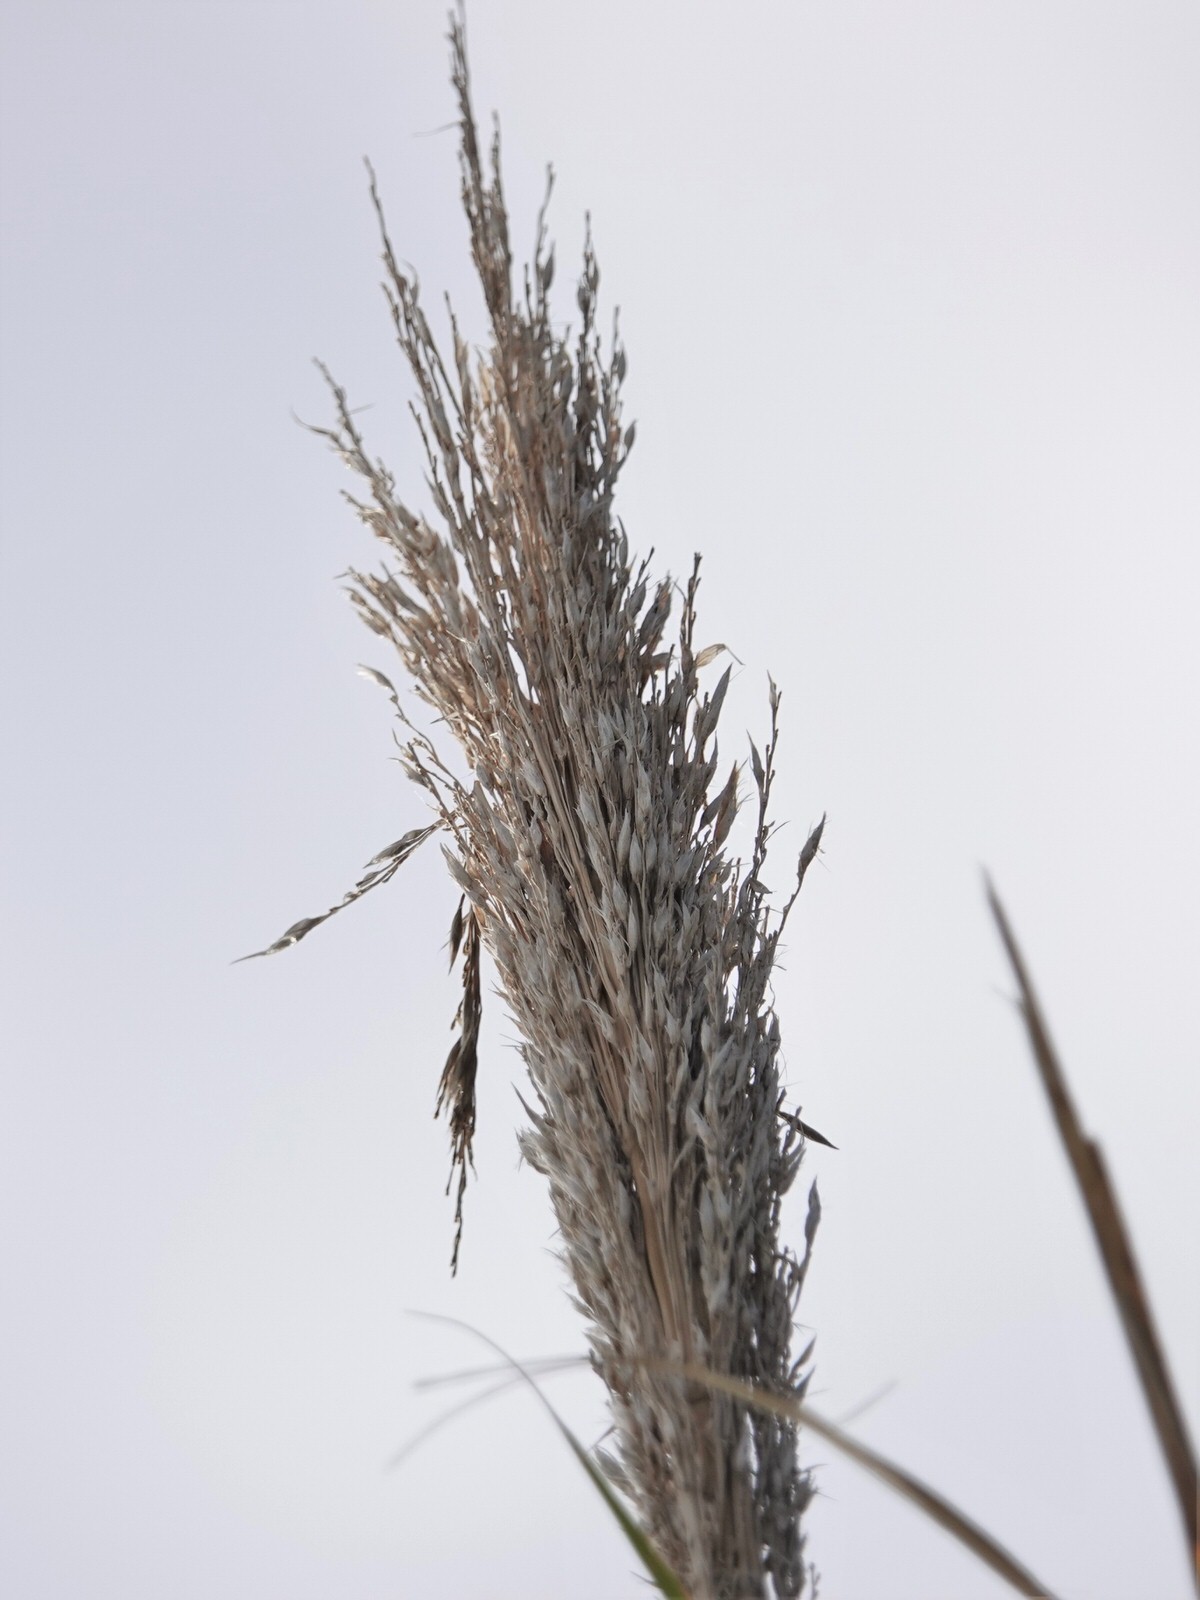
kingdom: Plantae
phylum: Tracheophyta
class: Liliopsida
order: Poales
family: Poaceae
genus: Arundo
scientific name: Arundo donax
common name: Giant reed
